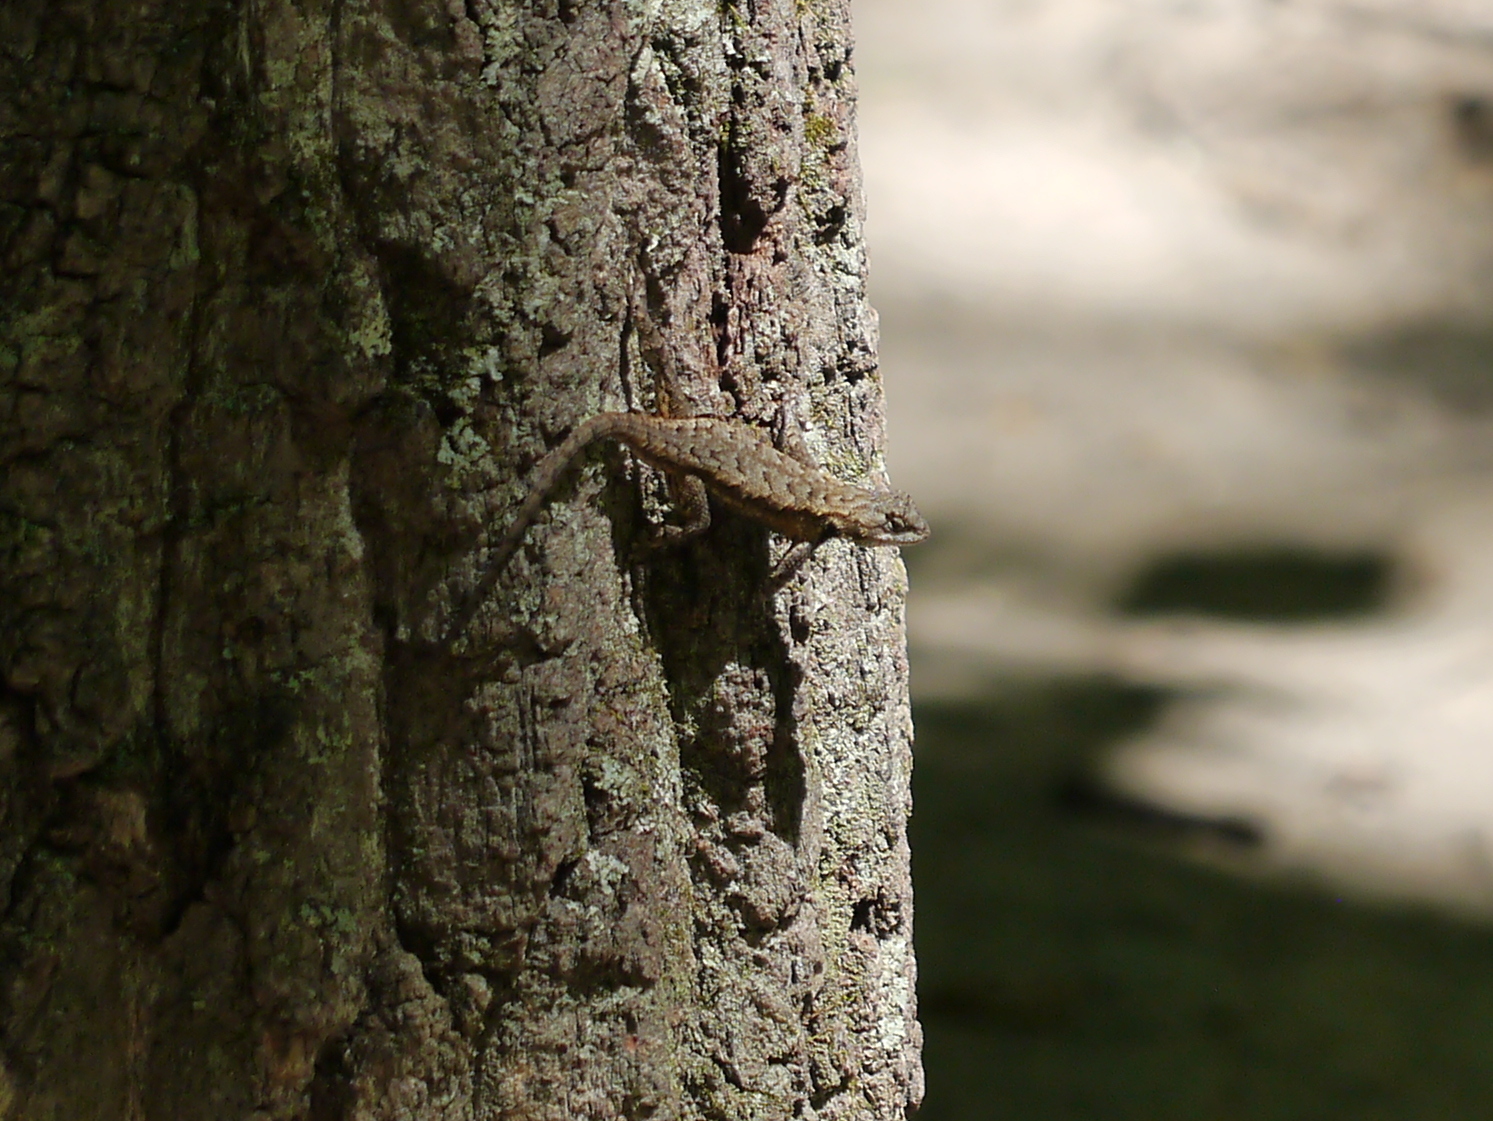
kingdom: Animalia
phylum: Chordata
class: Squamata
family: Phrynosomatidae
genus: Sceloporus
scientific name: Sceloporus undulatus
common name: Eastern fence lizard
